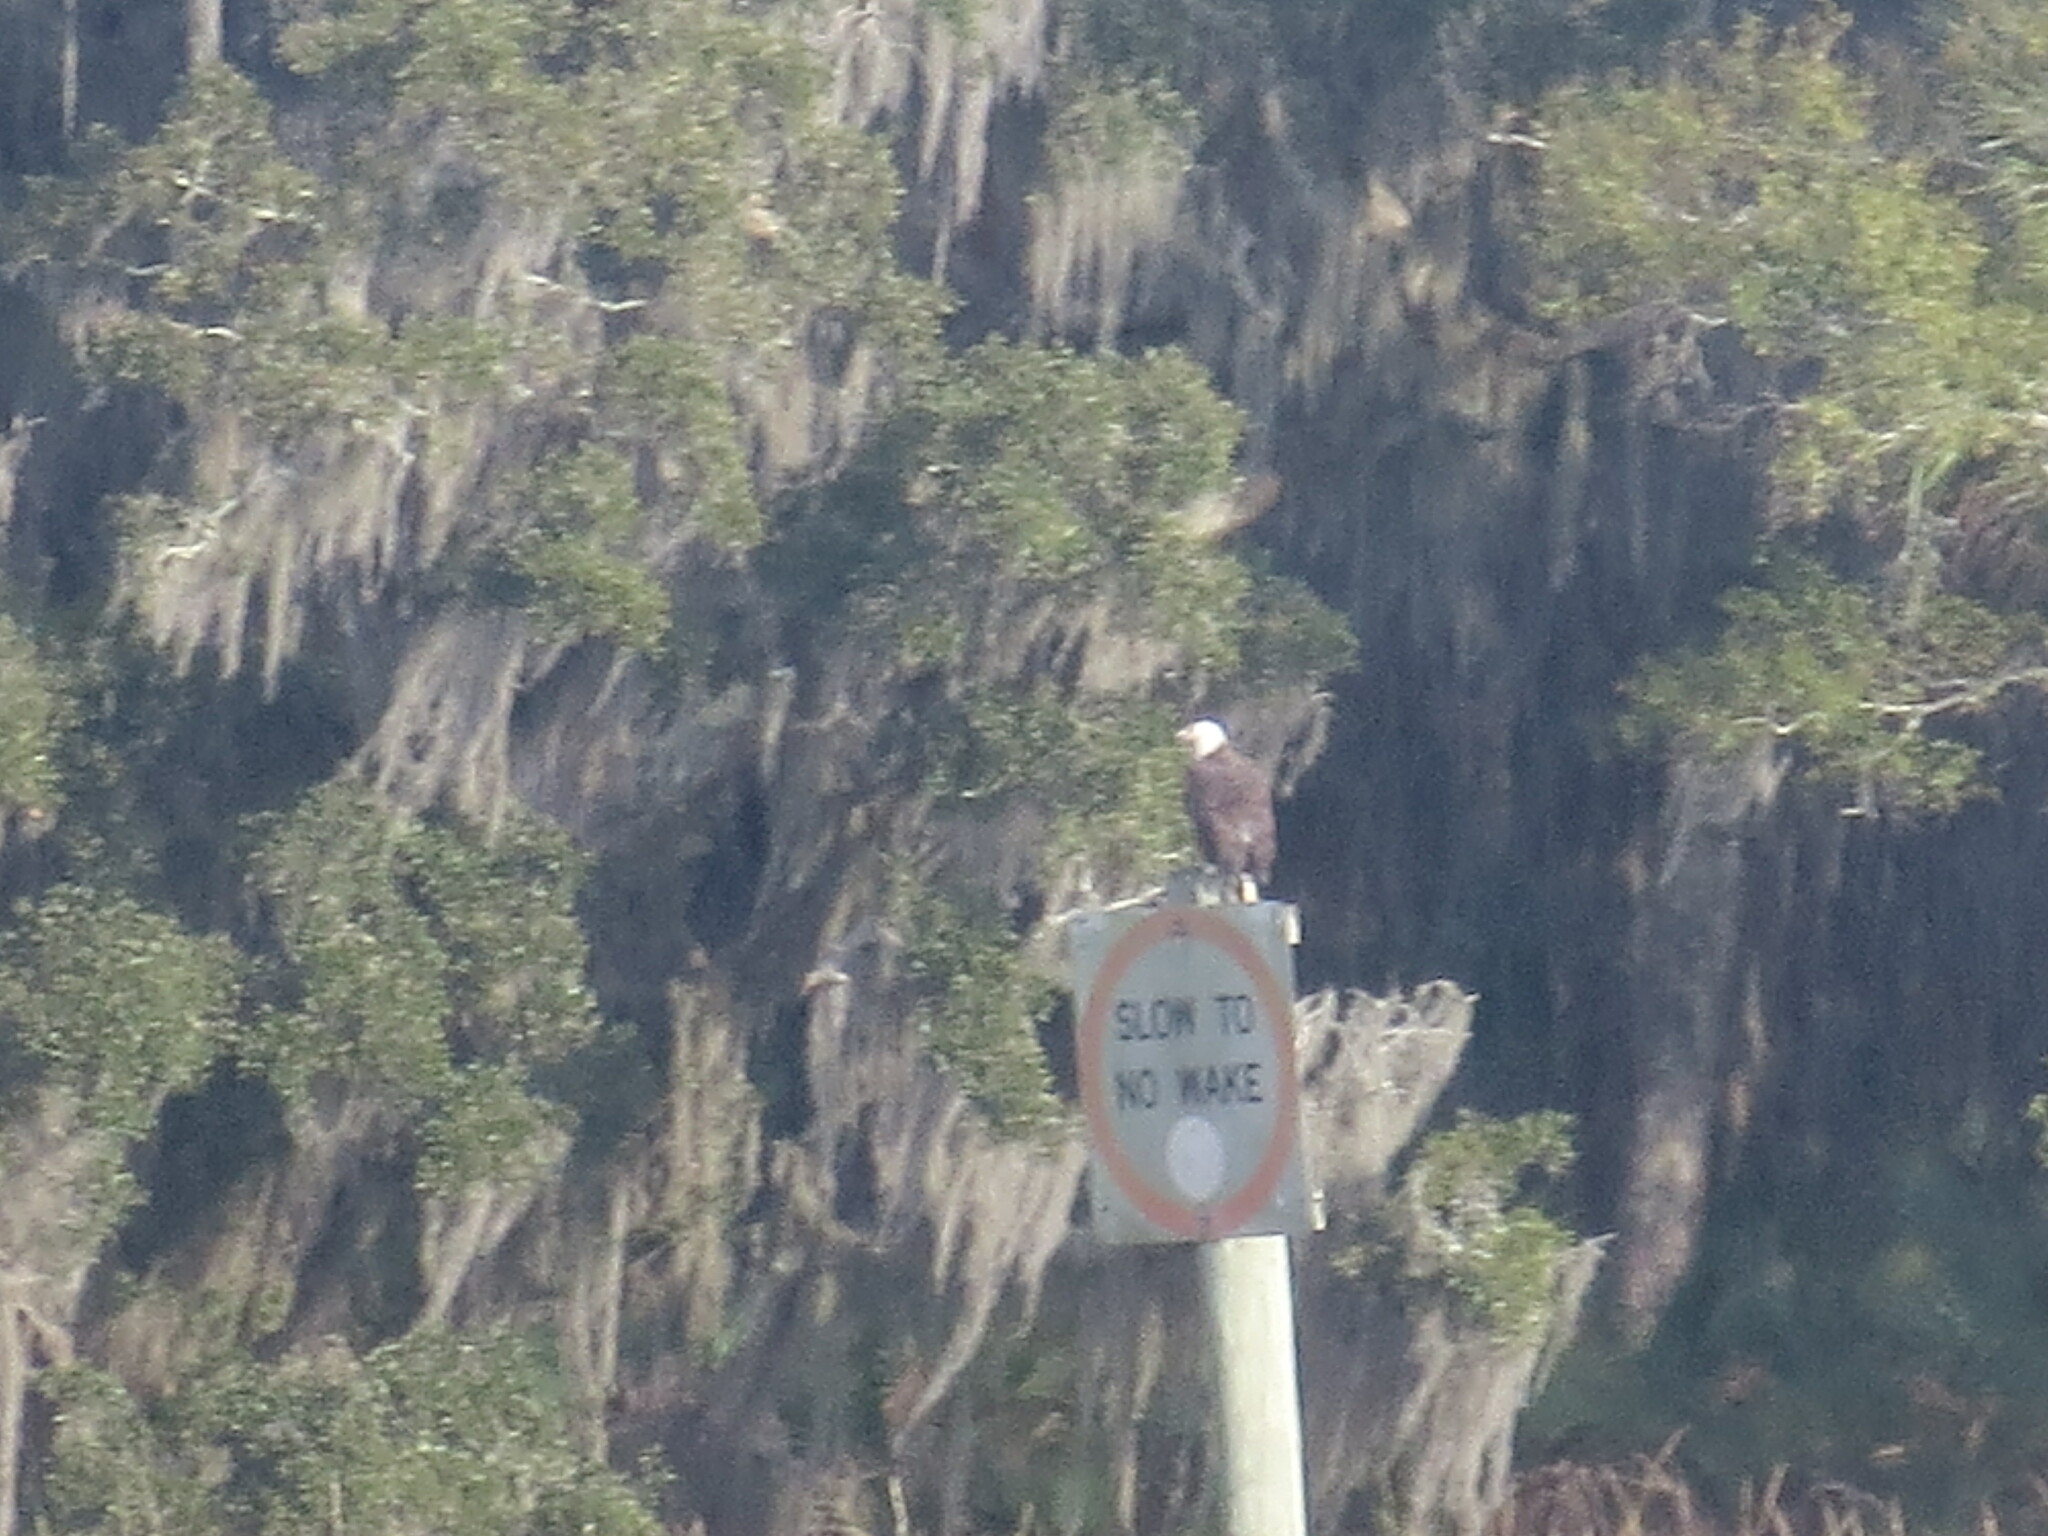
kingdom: Animalia
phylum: Chordata
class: Aves
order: Accipitriformes
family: Accipitridae
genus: Haliaeetus
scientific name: Haliaeetus leucocephalus
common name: Bald eagle
